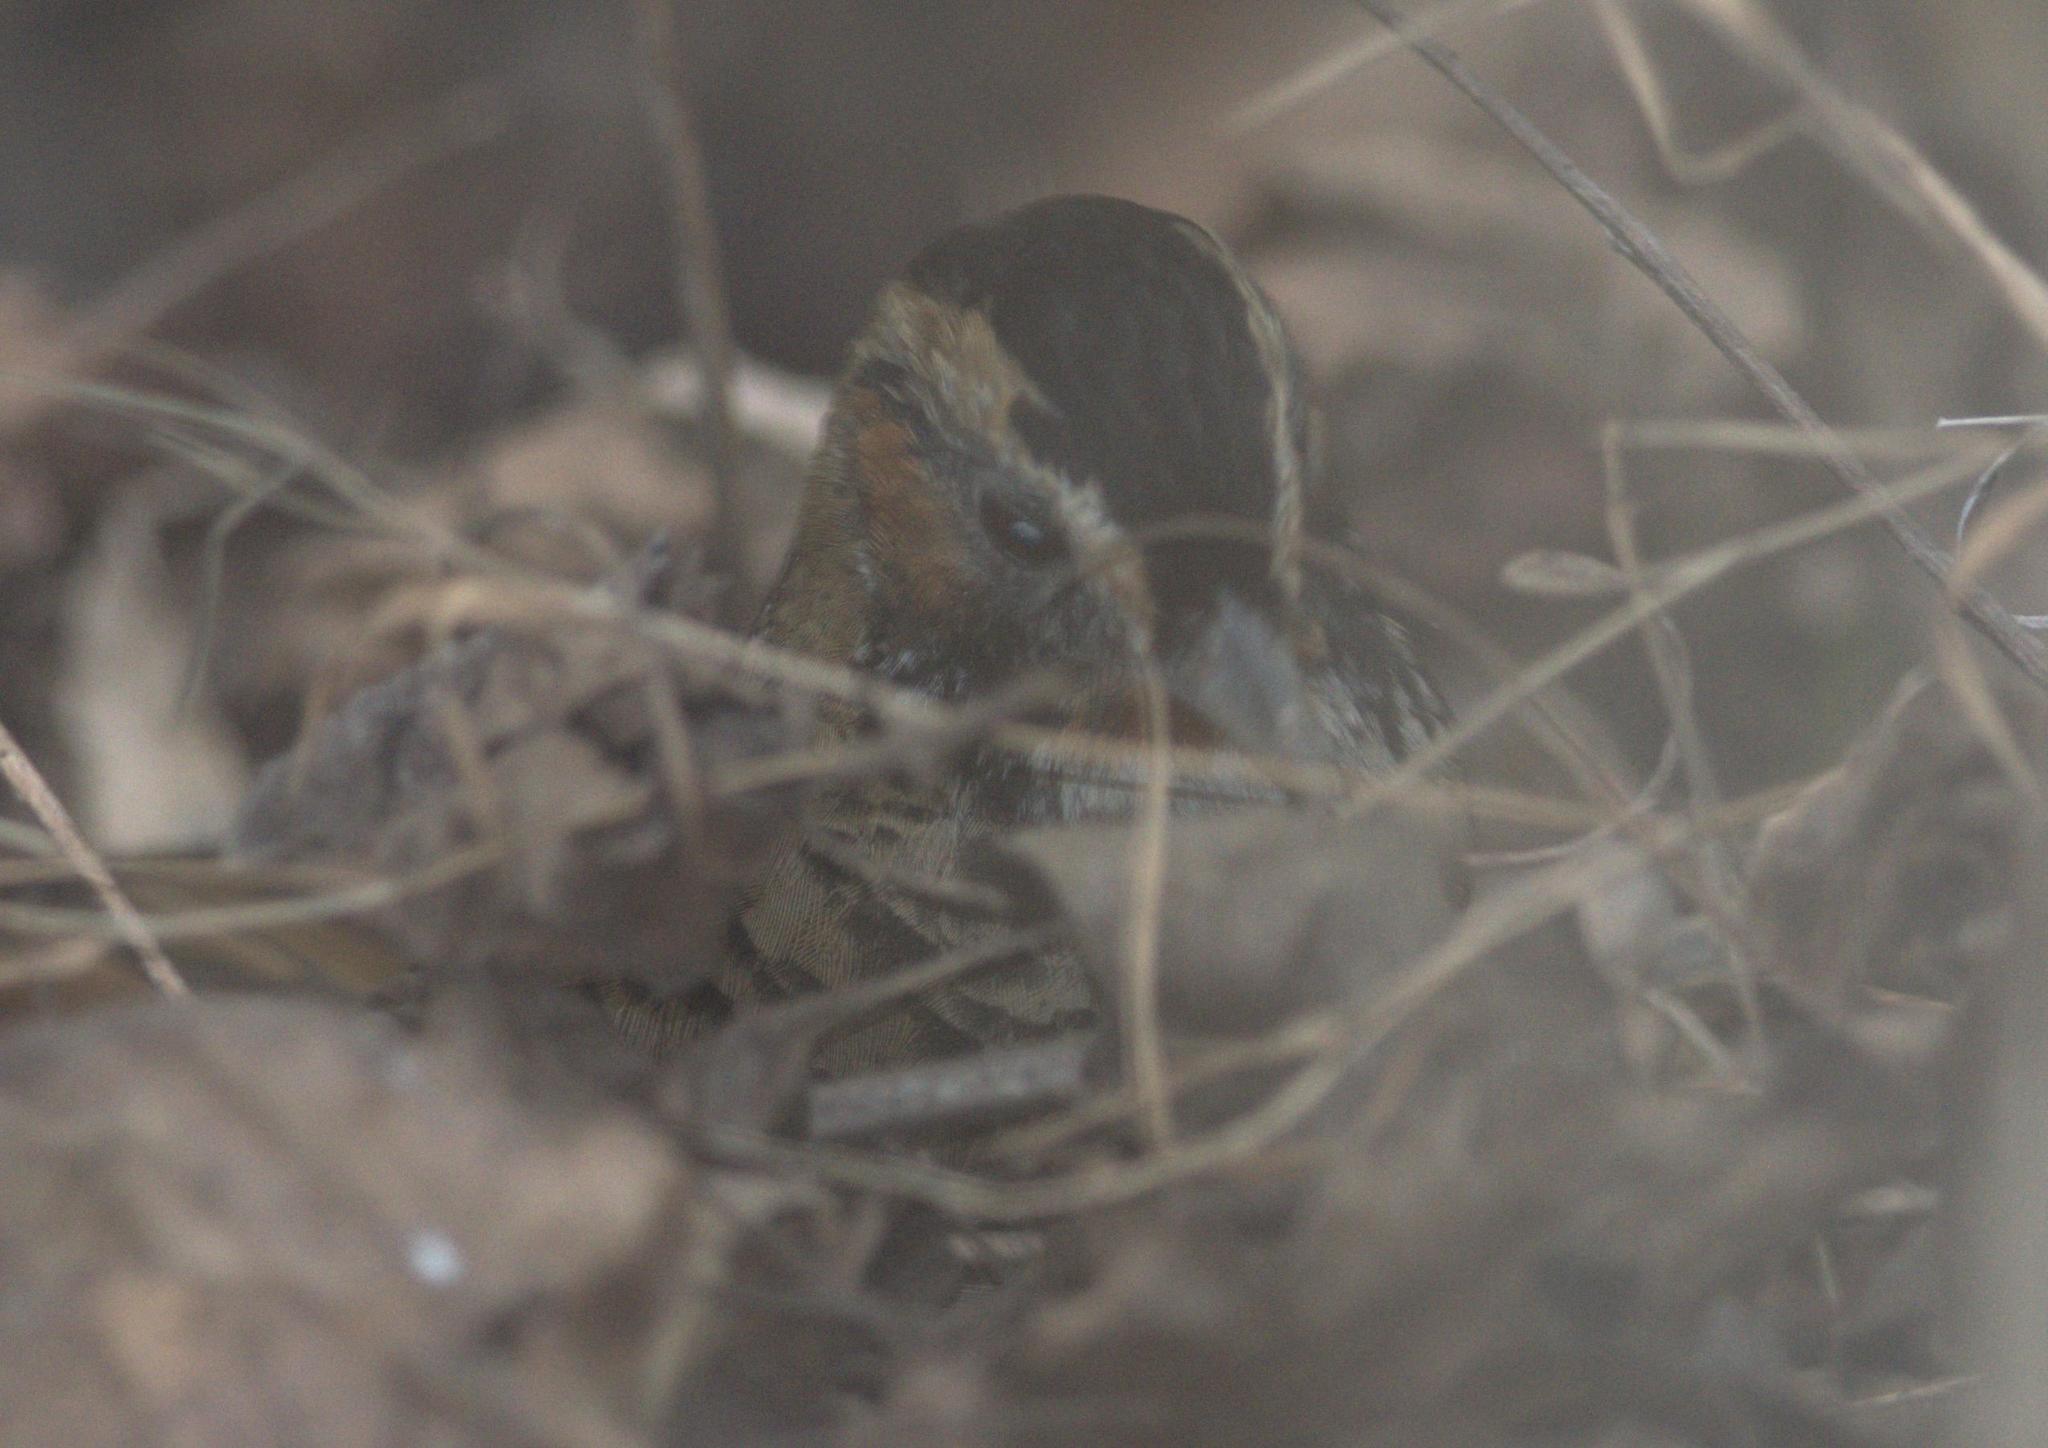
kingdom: Animalia
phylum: Chordata
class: Aves
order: Passeriformes
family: Leiothrichidae
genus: Garrulax
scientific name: Garrulax rufogularis
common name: Rufous-chinned laughingthrush
